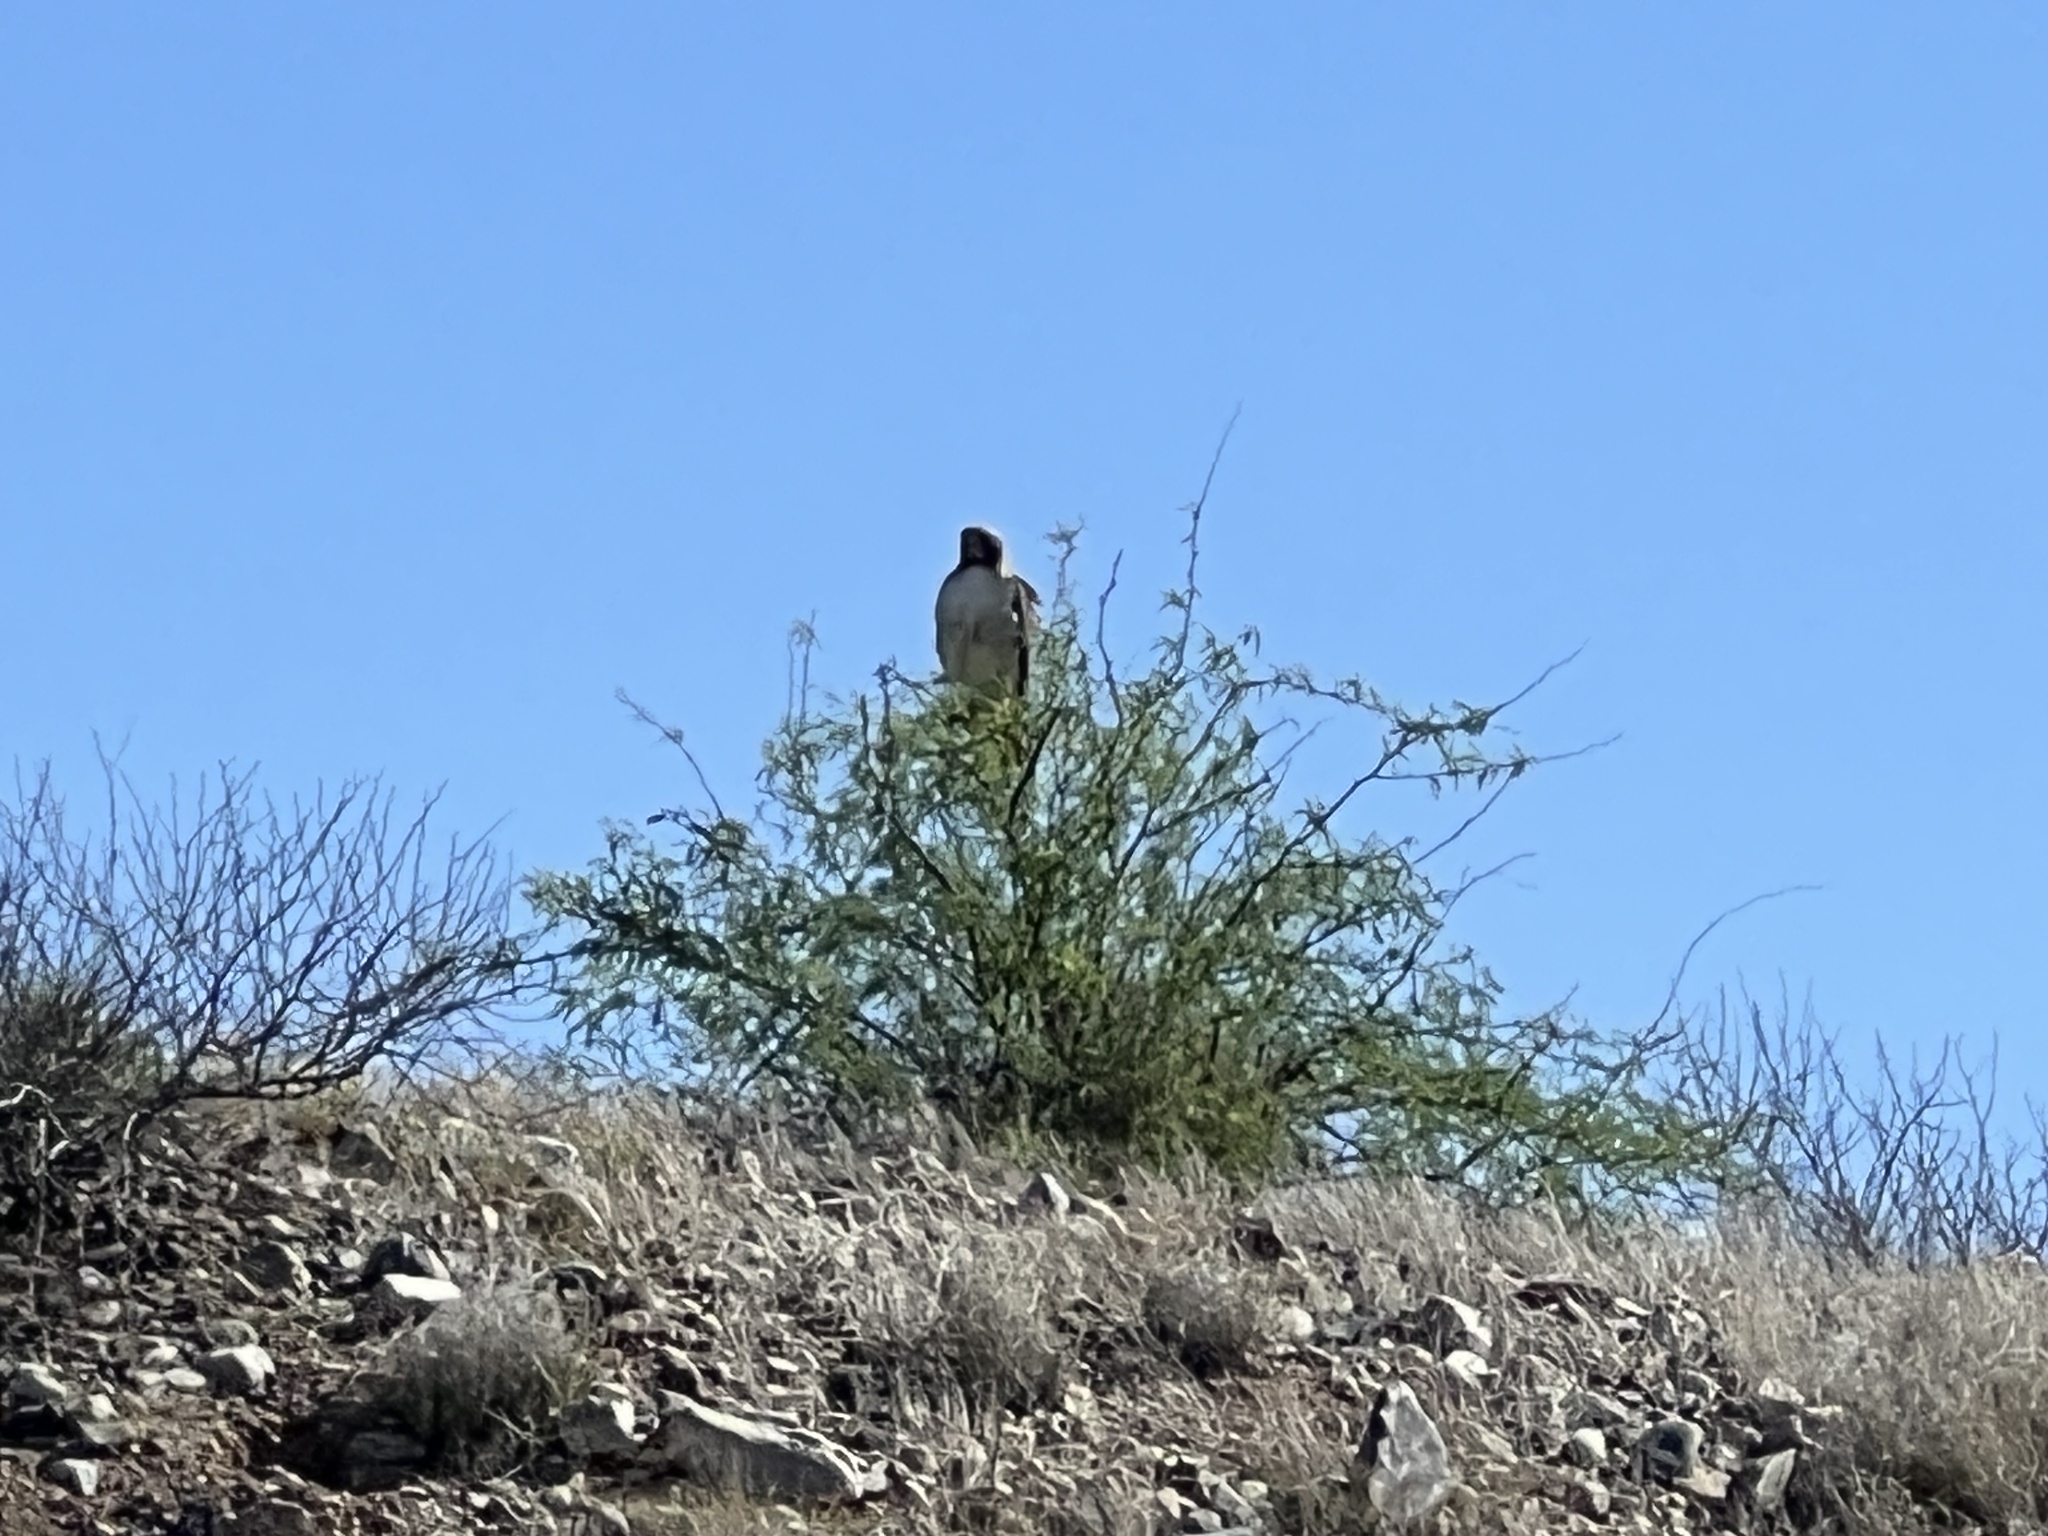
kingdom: Animalia
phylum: Chordata
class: Aves
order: Accipitriformes
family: Accipitridae
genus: Buteo
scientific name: Buteo jamaicensis
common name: Red-tailed hawk
